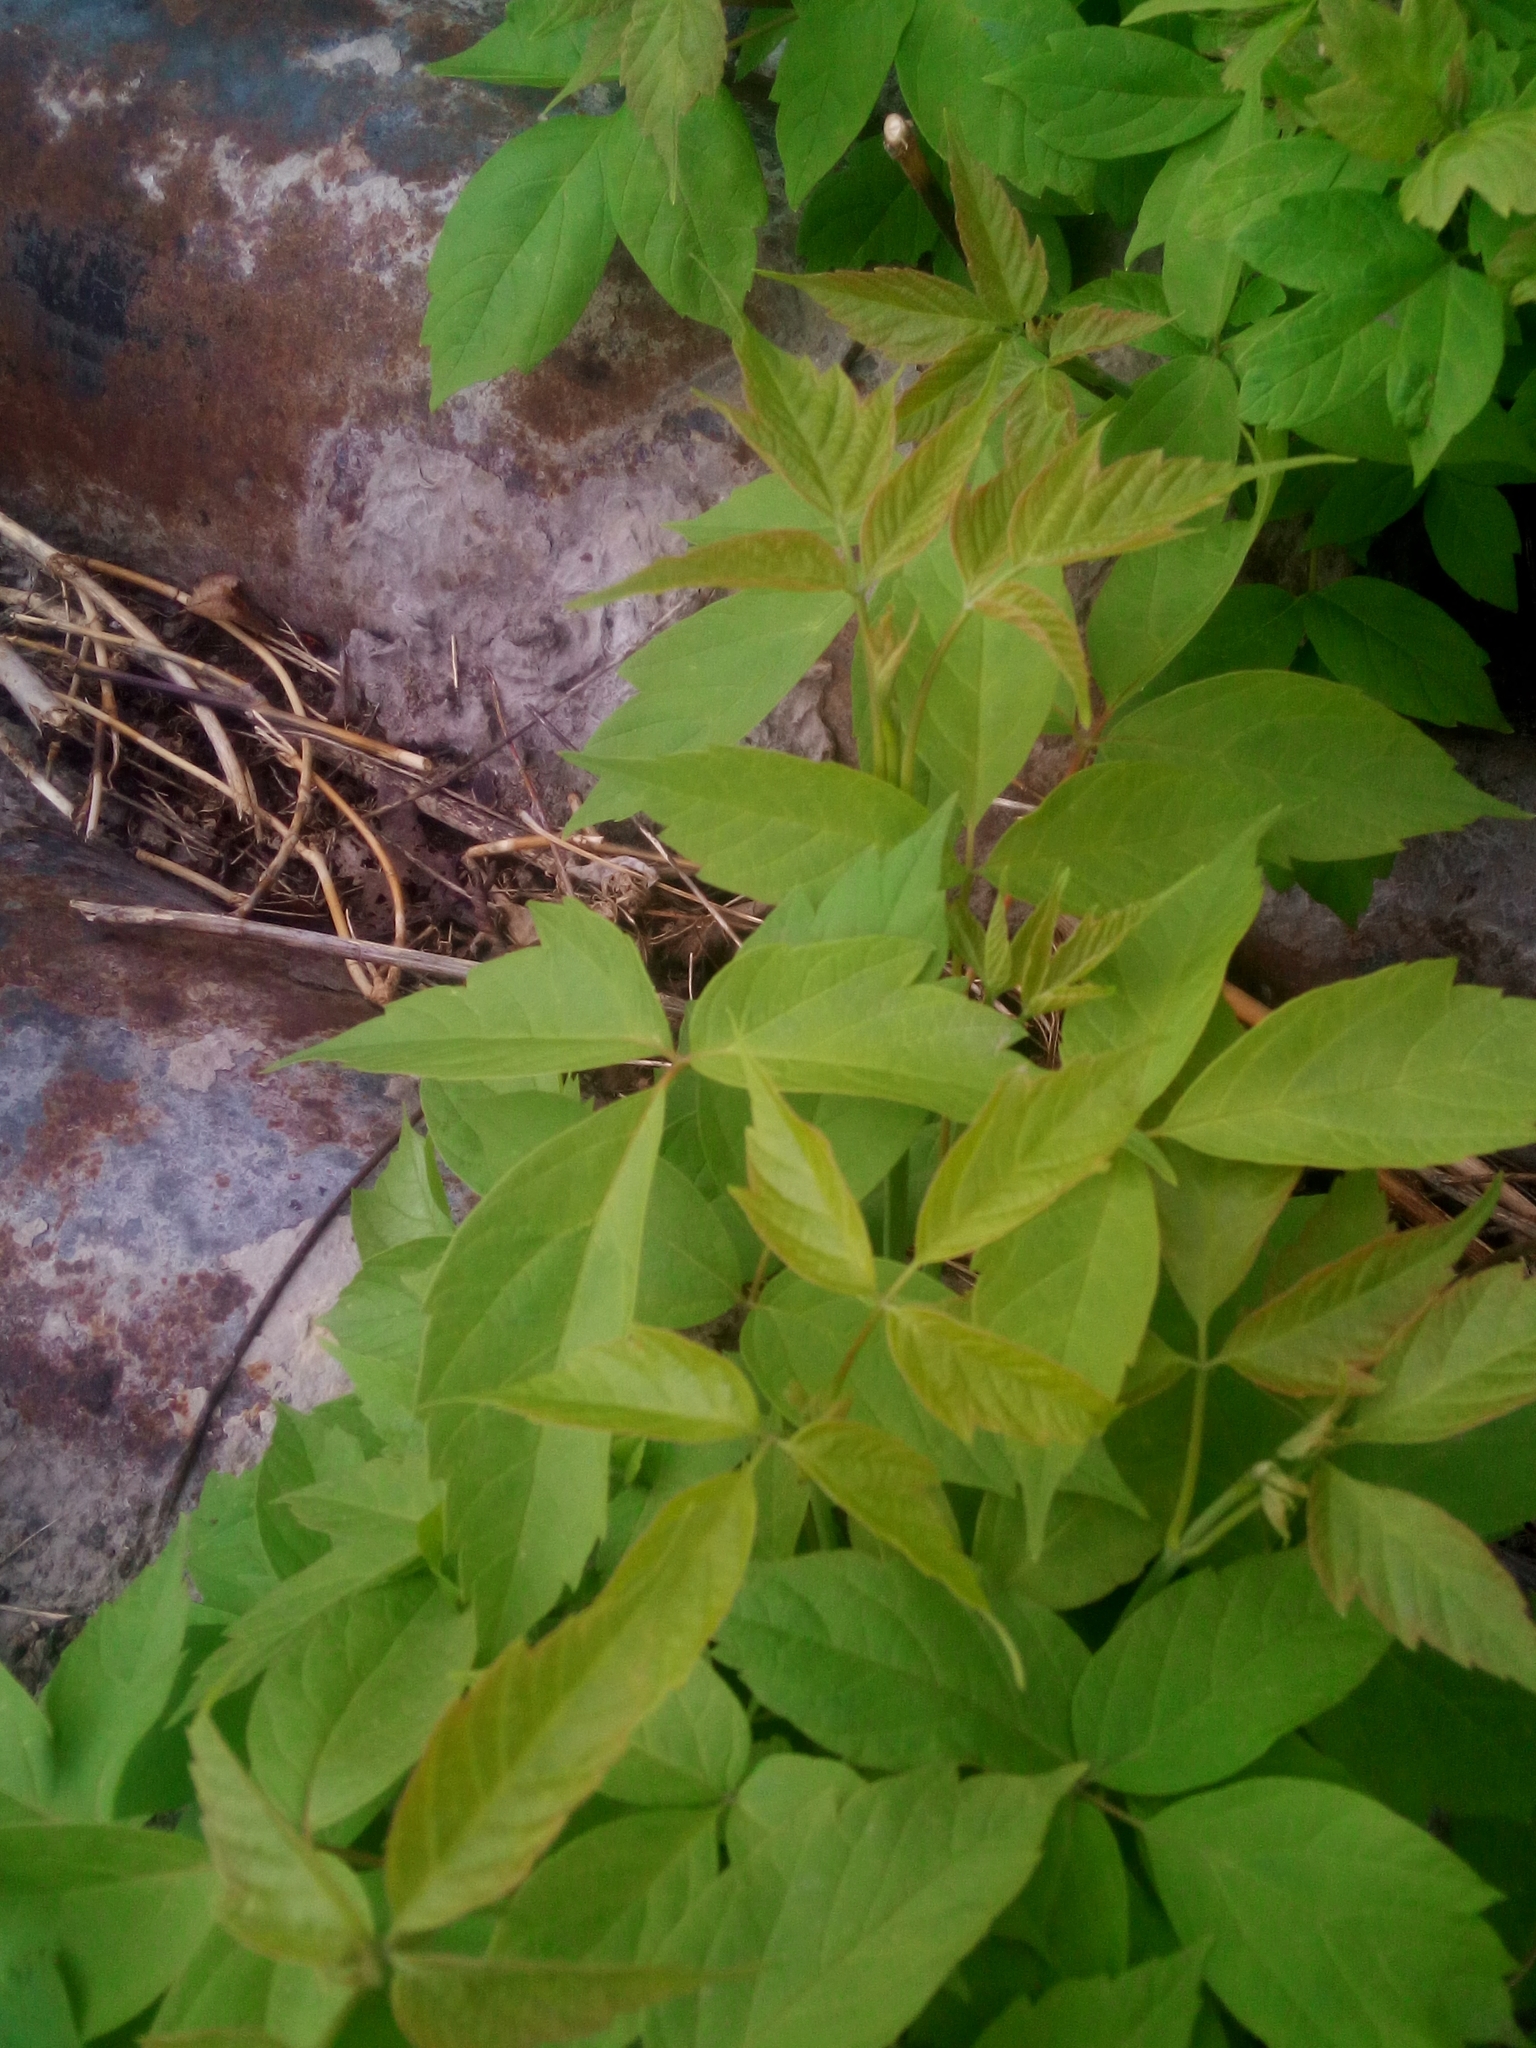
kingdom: Plantae
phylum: Tracheophyta
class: Magnoliopsida
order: Sapindales
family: Sapindaceae
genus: Acer
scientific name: Acer negundo
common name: Ashleaf maple
